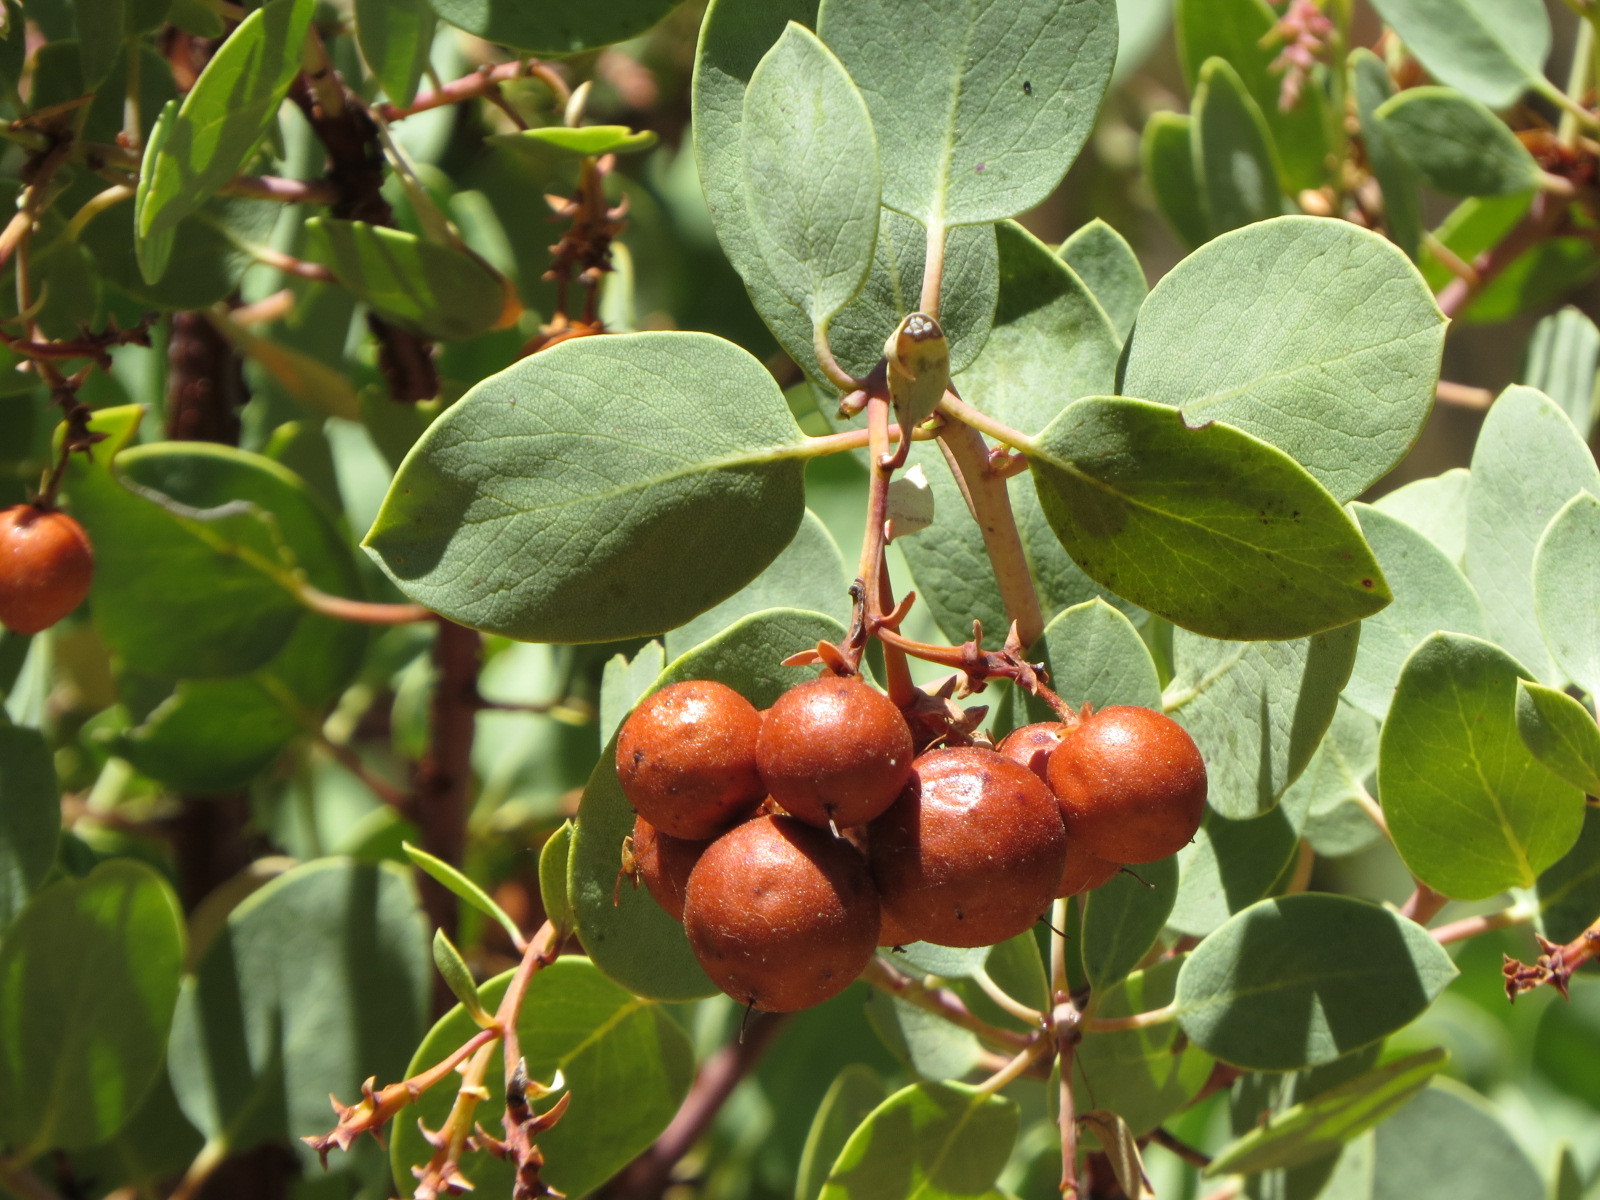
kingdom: Plantae
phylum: Tracheophyta
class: Magnoliopsida
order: Ericales
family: Ericaceae
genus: Arctostaphylos
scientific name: Arctostaphylos glauca
